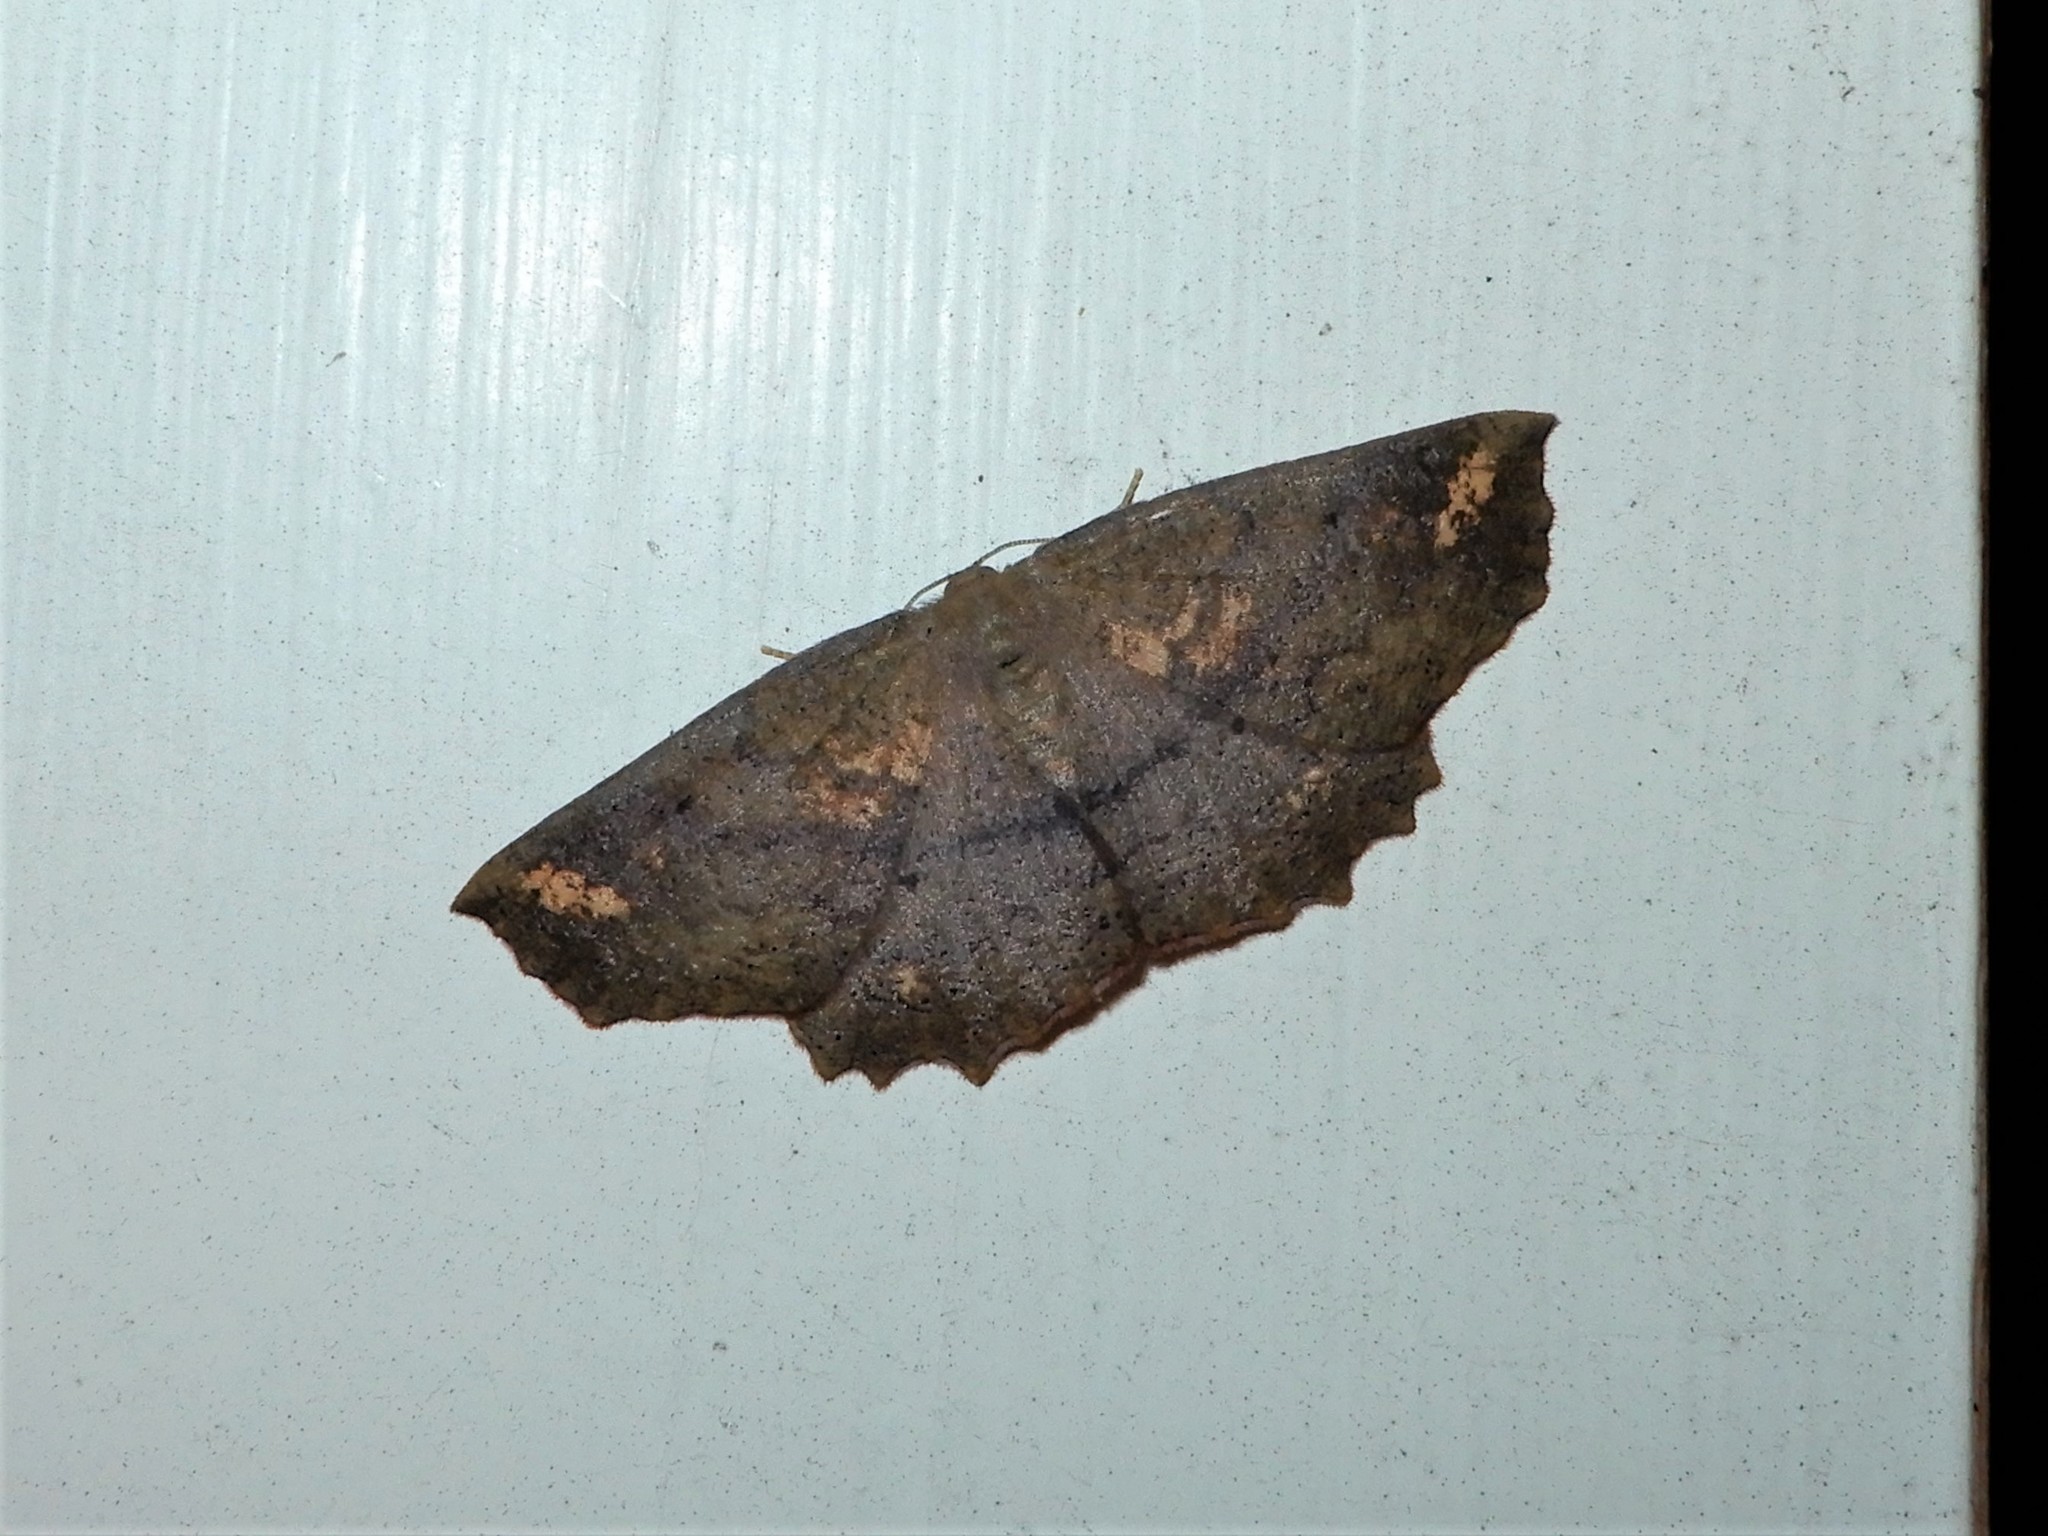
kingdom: Animalia
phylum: Arthropoda
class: Insecta
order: Lepidoptera
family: Geometridae
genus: Xyridacma
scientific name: Xyridacma ustaria
